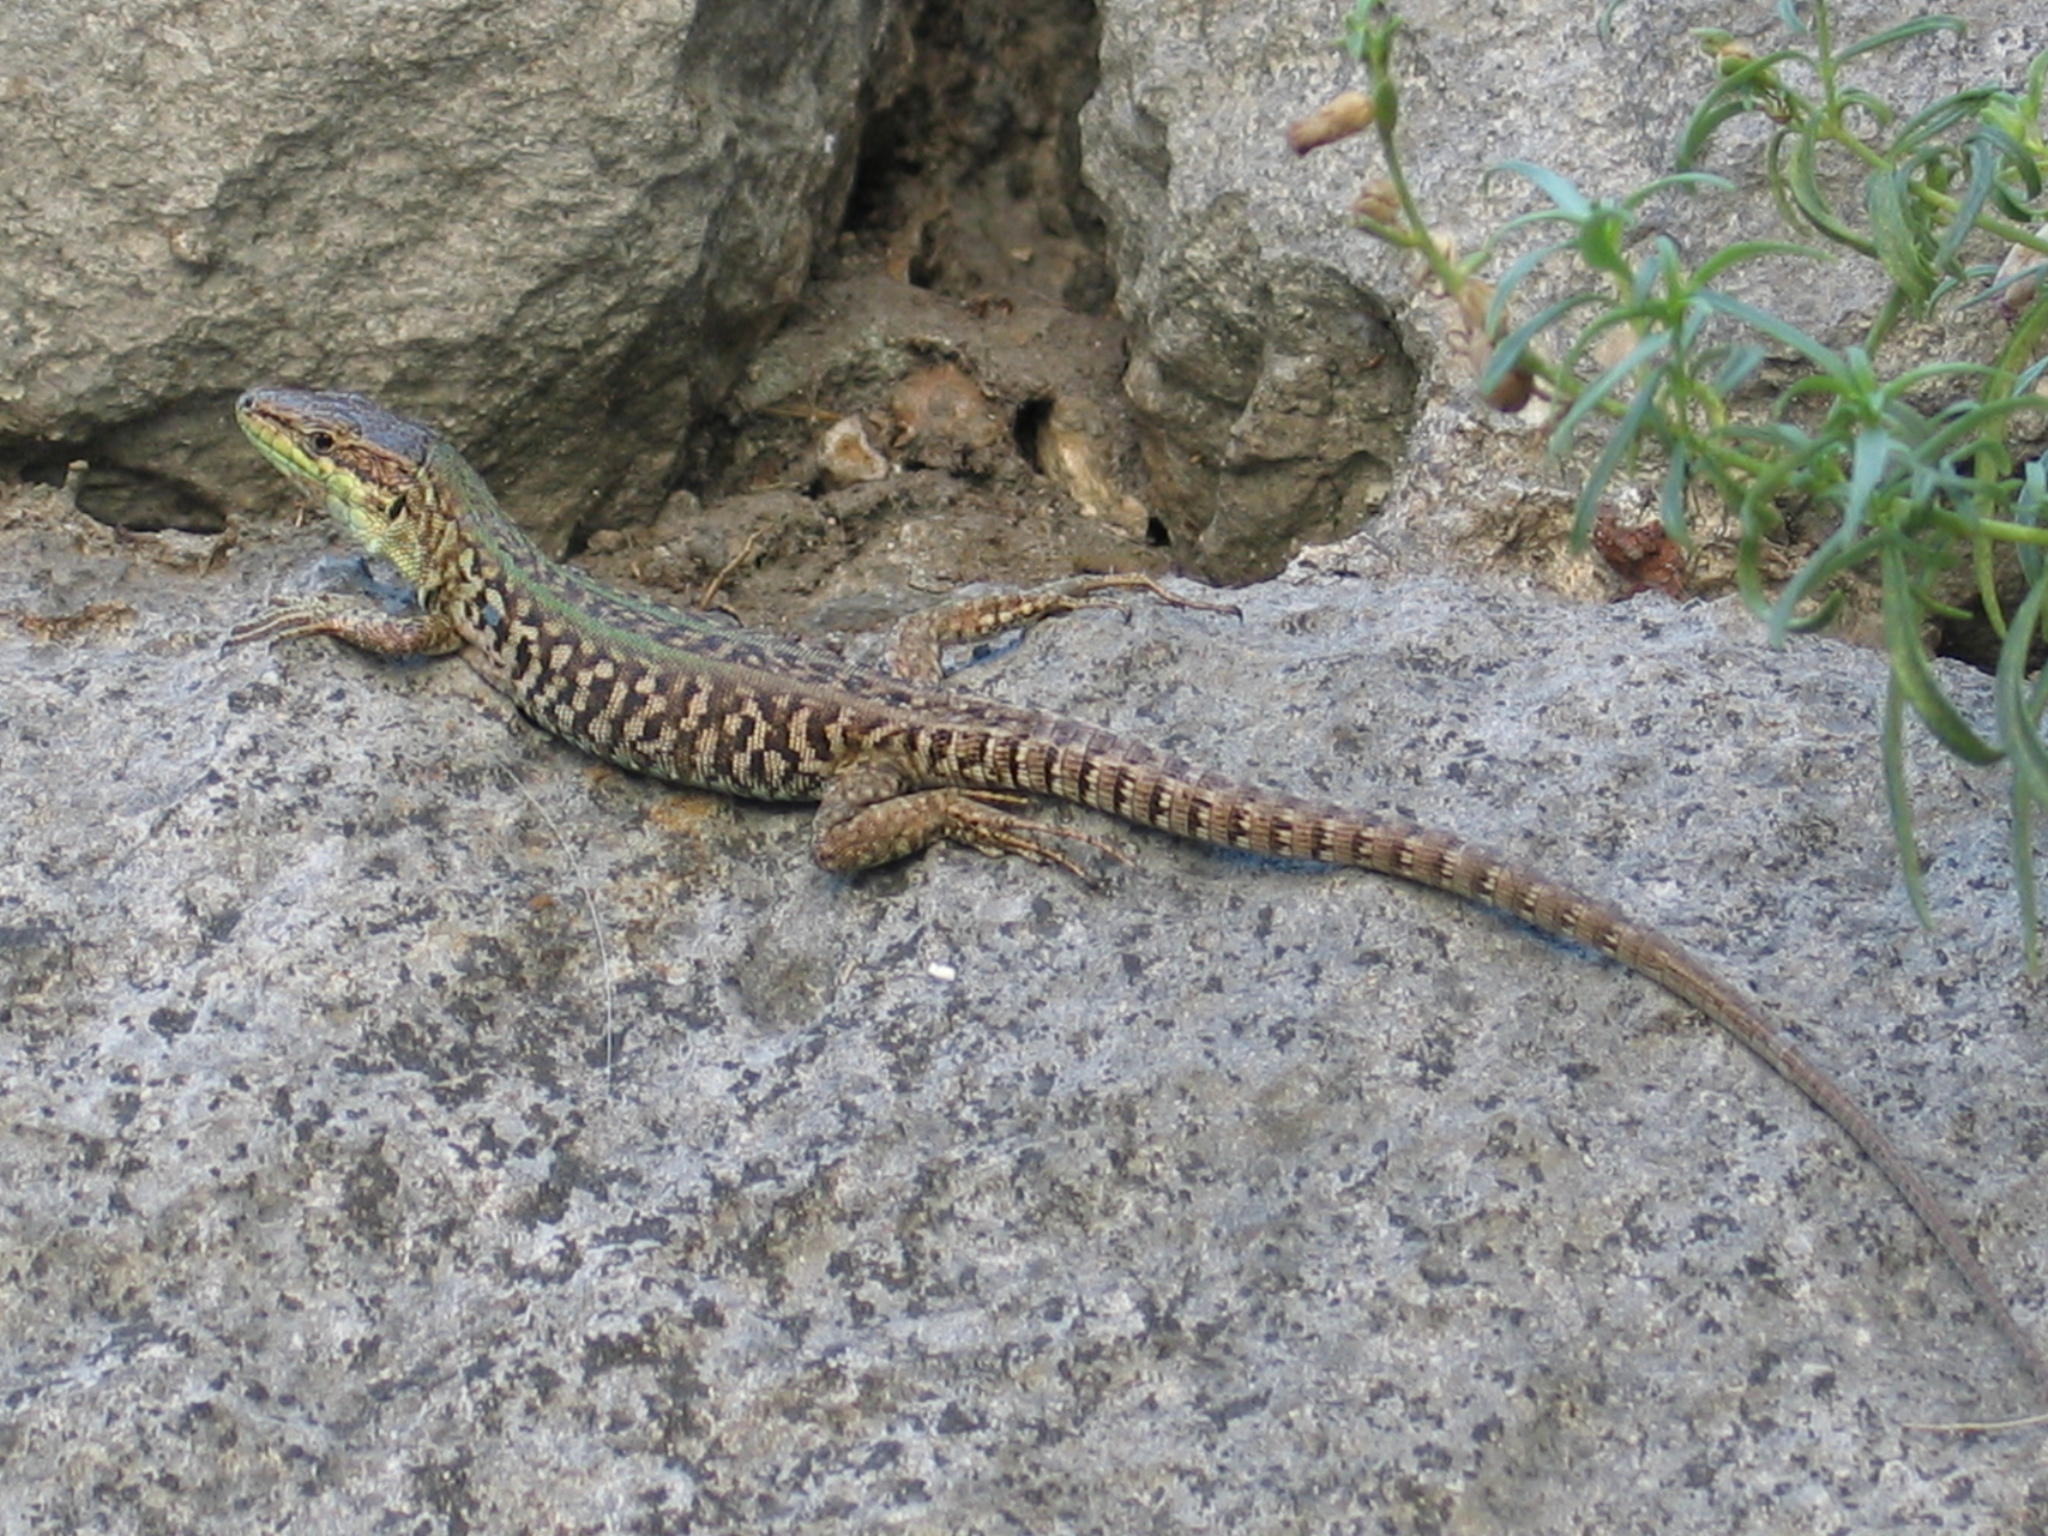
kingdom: Animalia
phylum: Chordata
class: Squamata
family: Lacertidae
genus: Podarcis
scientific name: Podarcis siculus
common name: Italian wall lizard
